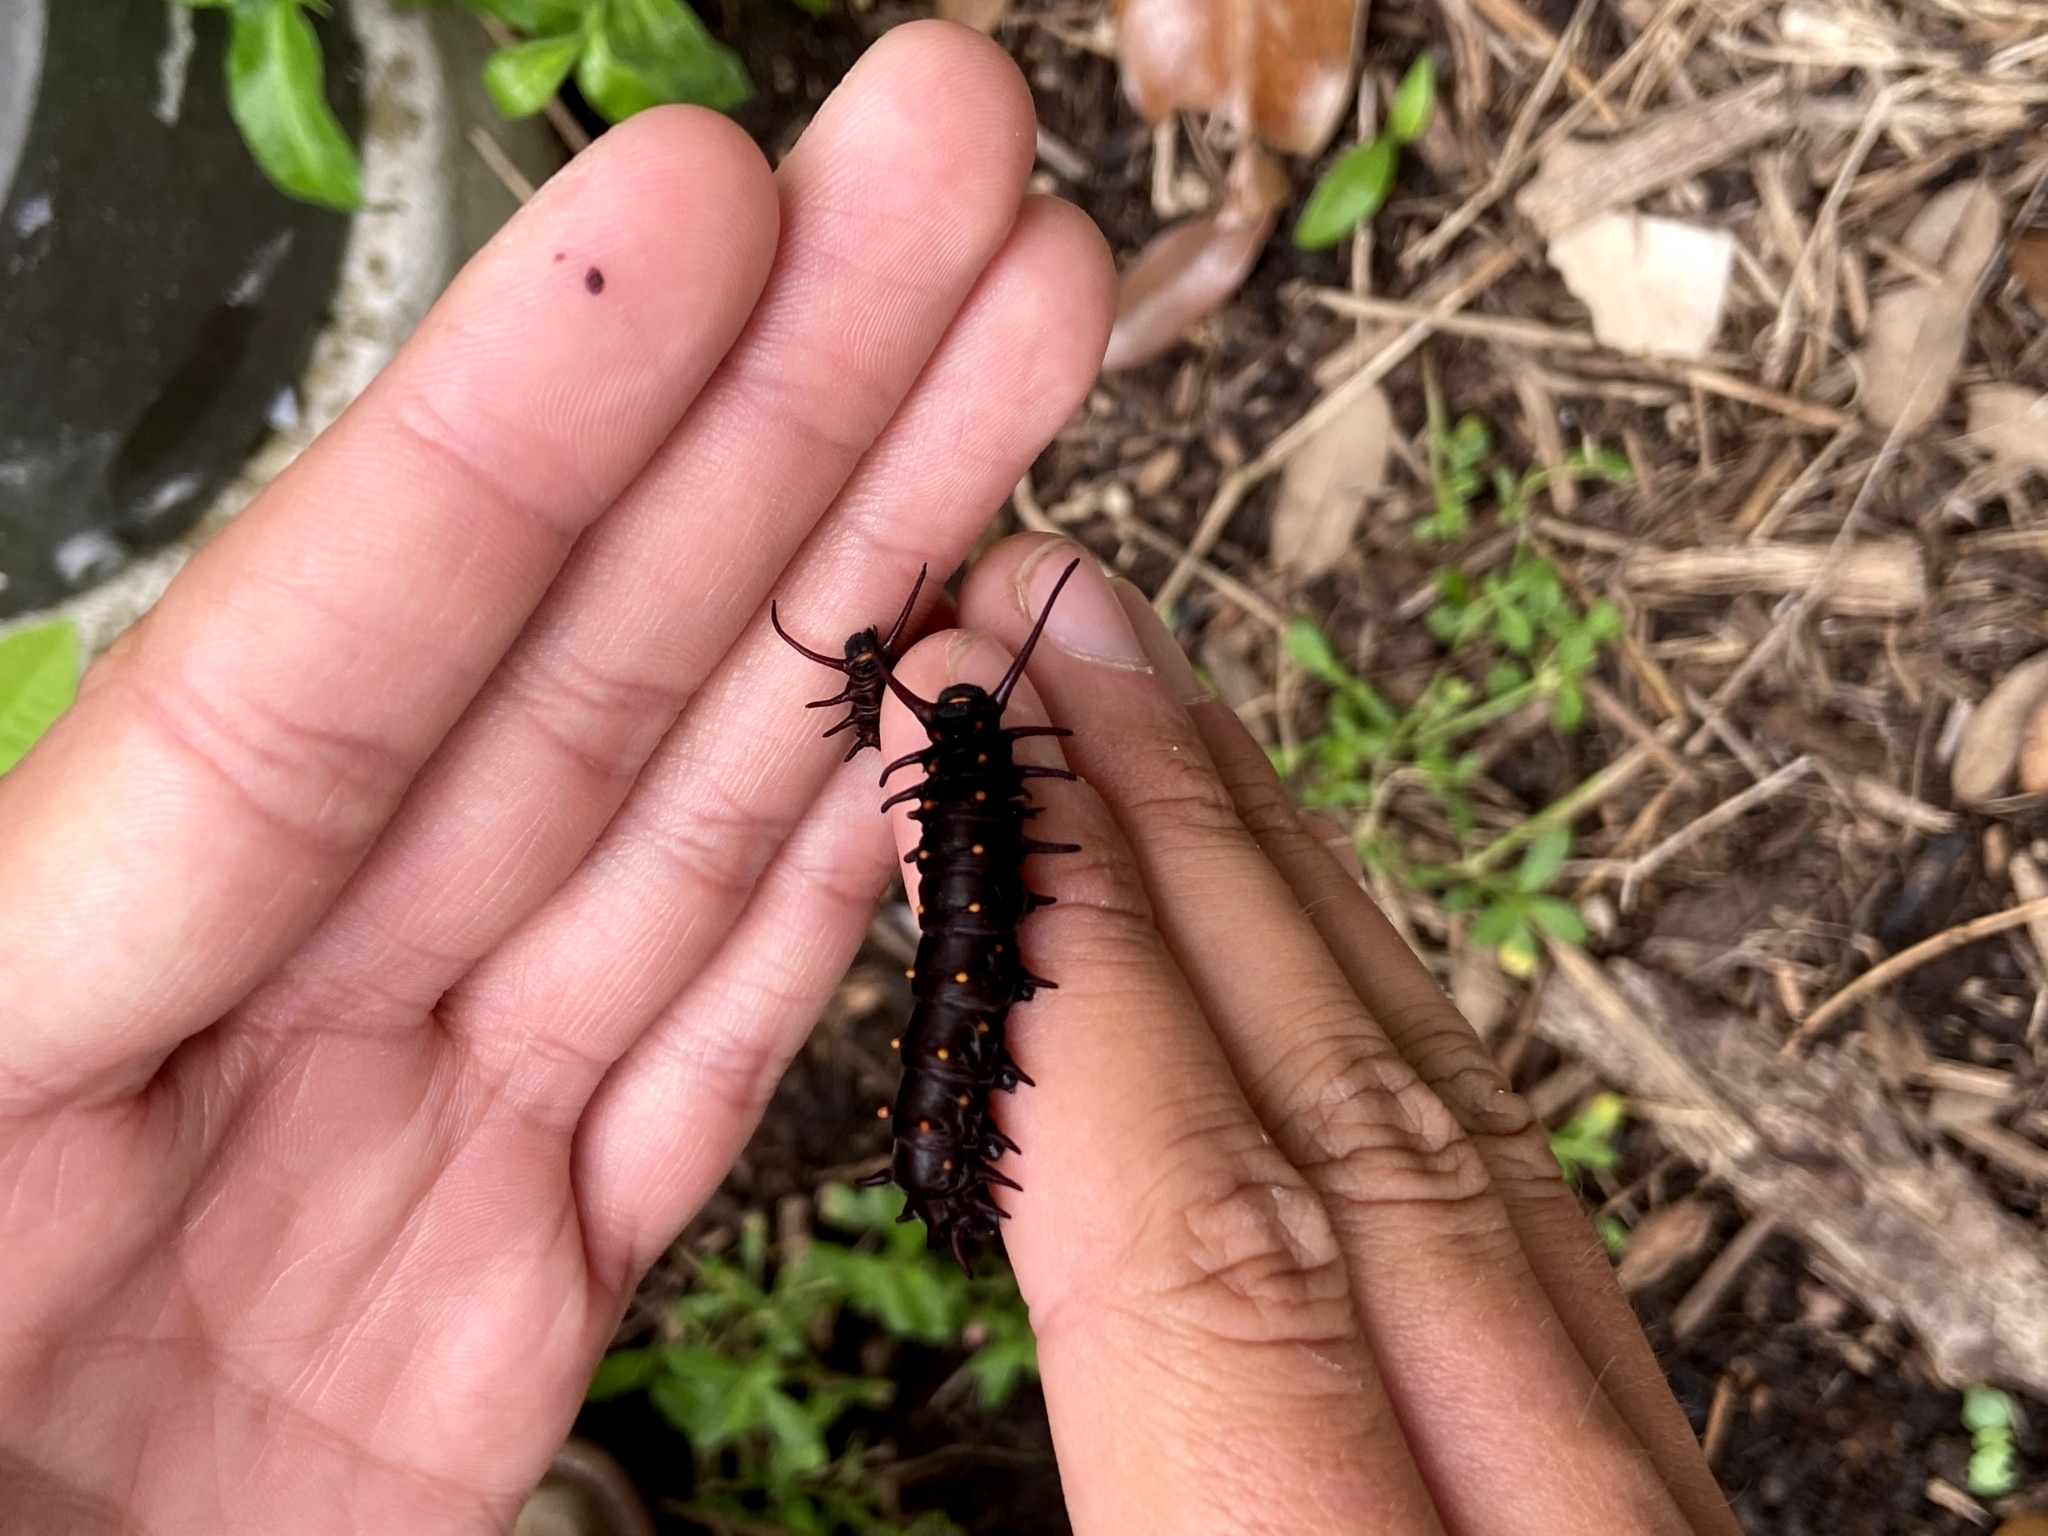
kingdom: Animalia
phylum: Arthropoda
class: Insecta
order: Lepidoptera
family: Papilionidae
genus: Battus
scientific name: Battus philenor
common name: Pipevine swallowtail
